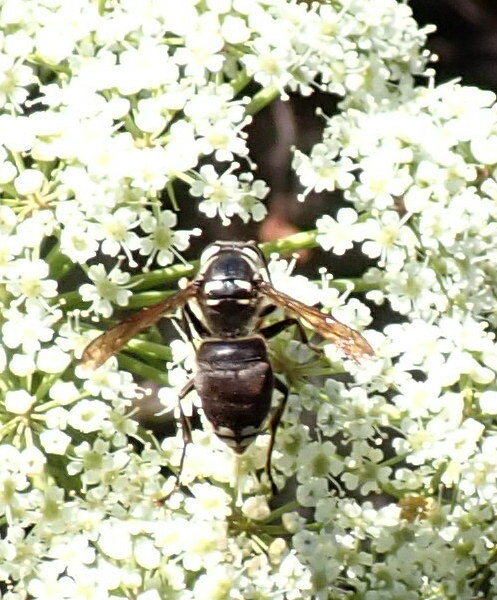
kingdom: Animalia
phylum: Arthropoda
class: Insecta
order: Hymenoptera
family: Vespidae
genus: Dolichovespula
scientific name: Dolichovespula maculata
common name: Bald-faced hornet
